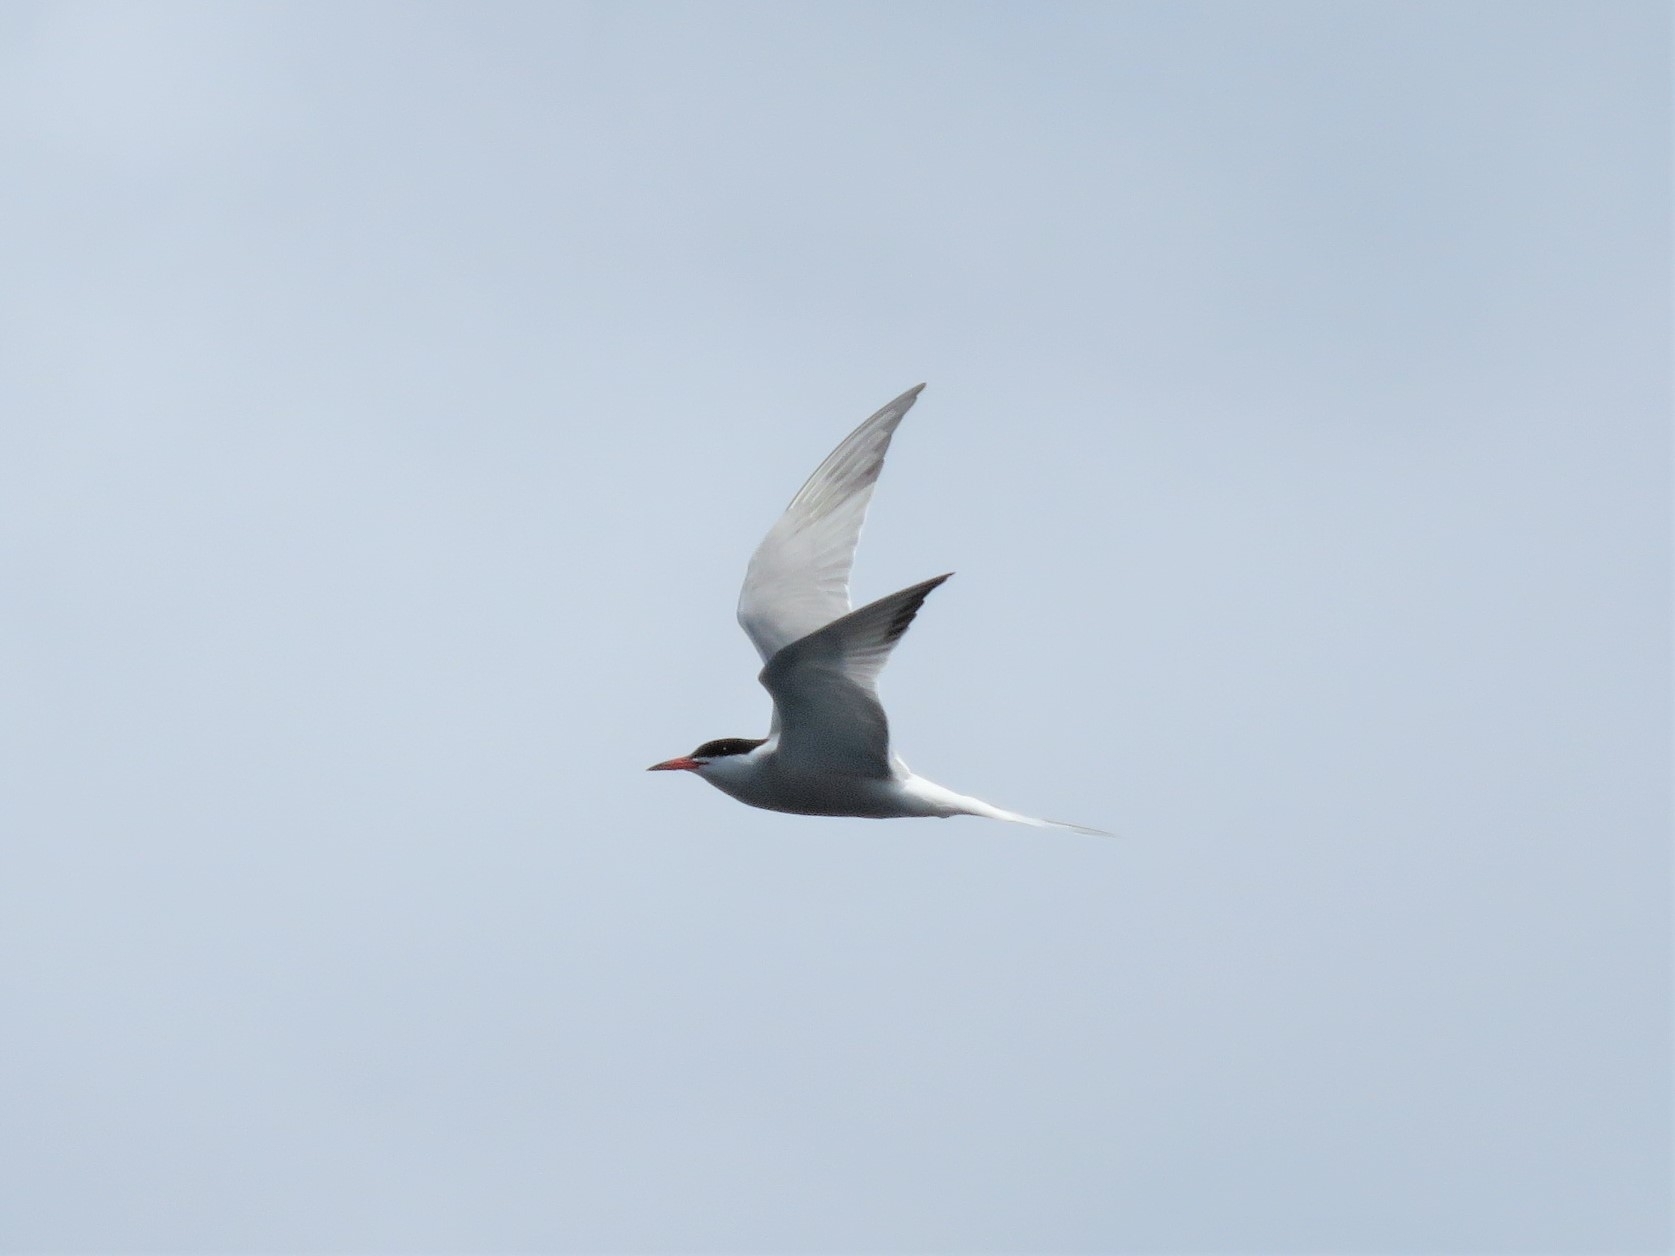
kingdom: Animalia
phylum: Chordata
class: Aves
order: Charadriiformes
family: Laridae
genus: Sterna
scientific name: Sterna hirundo
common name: Common tern
